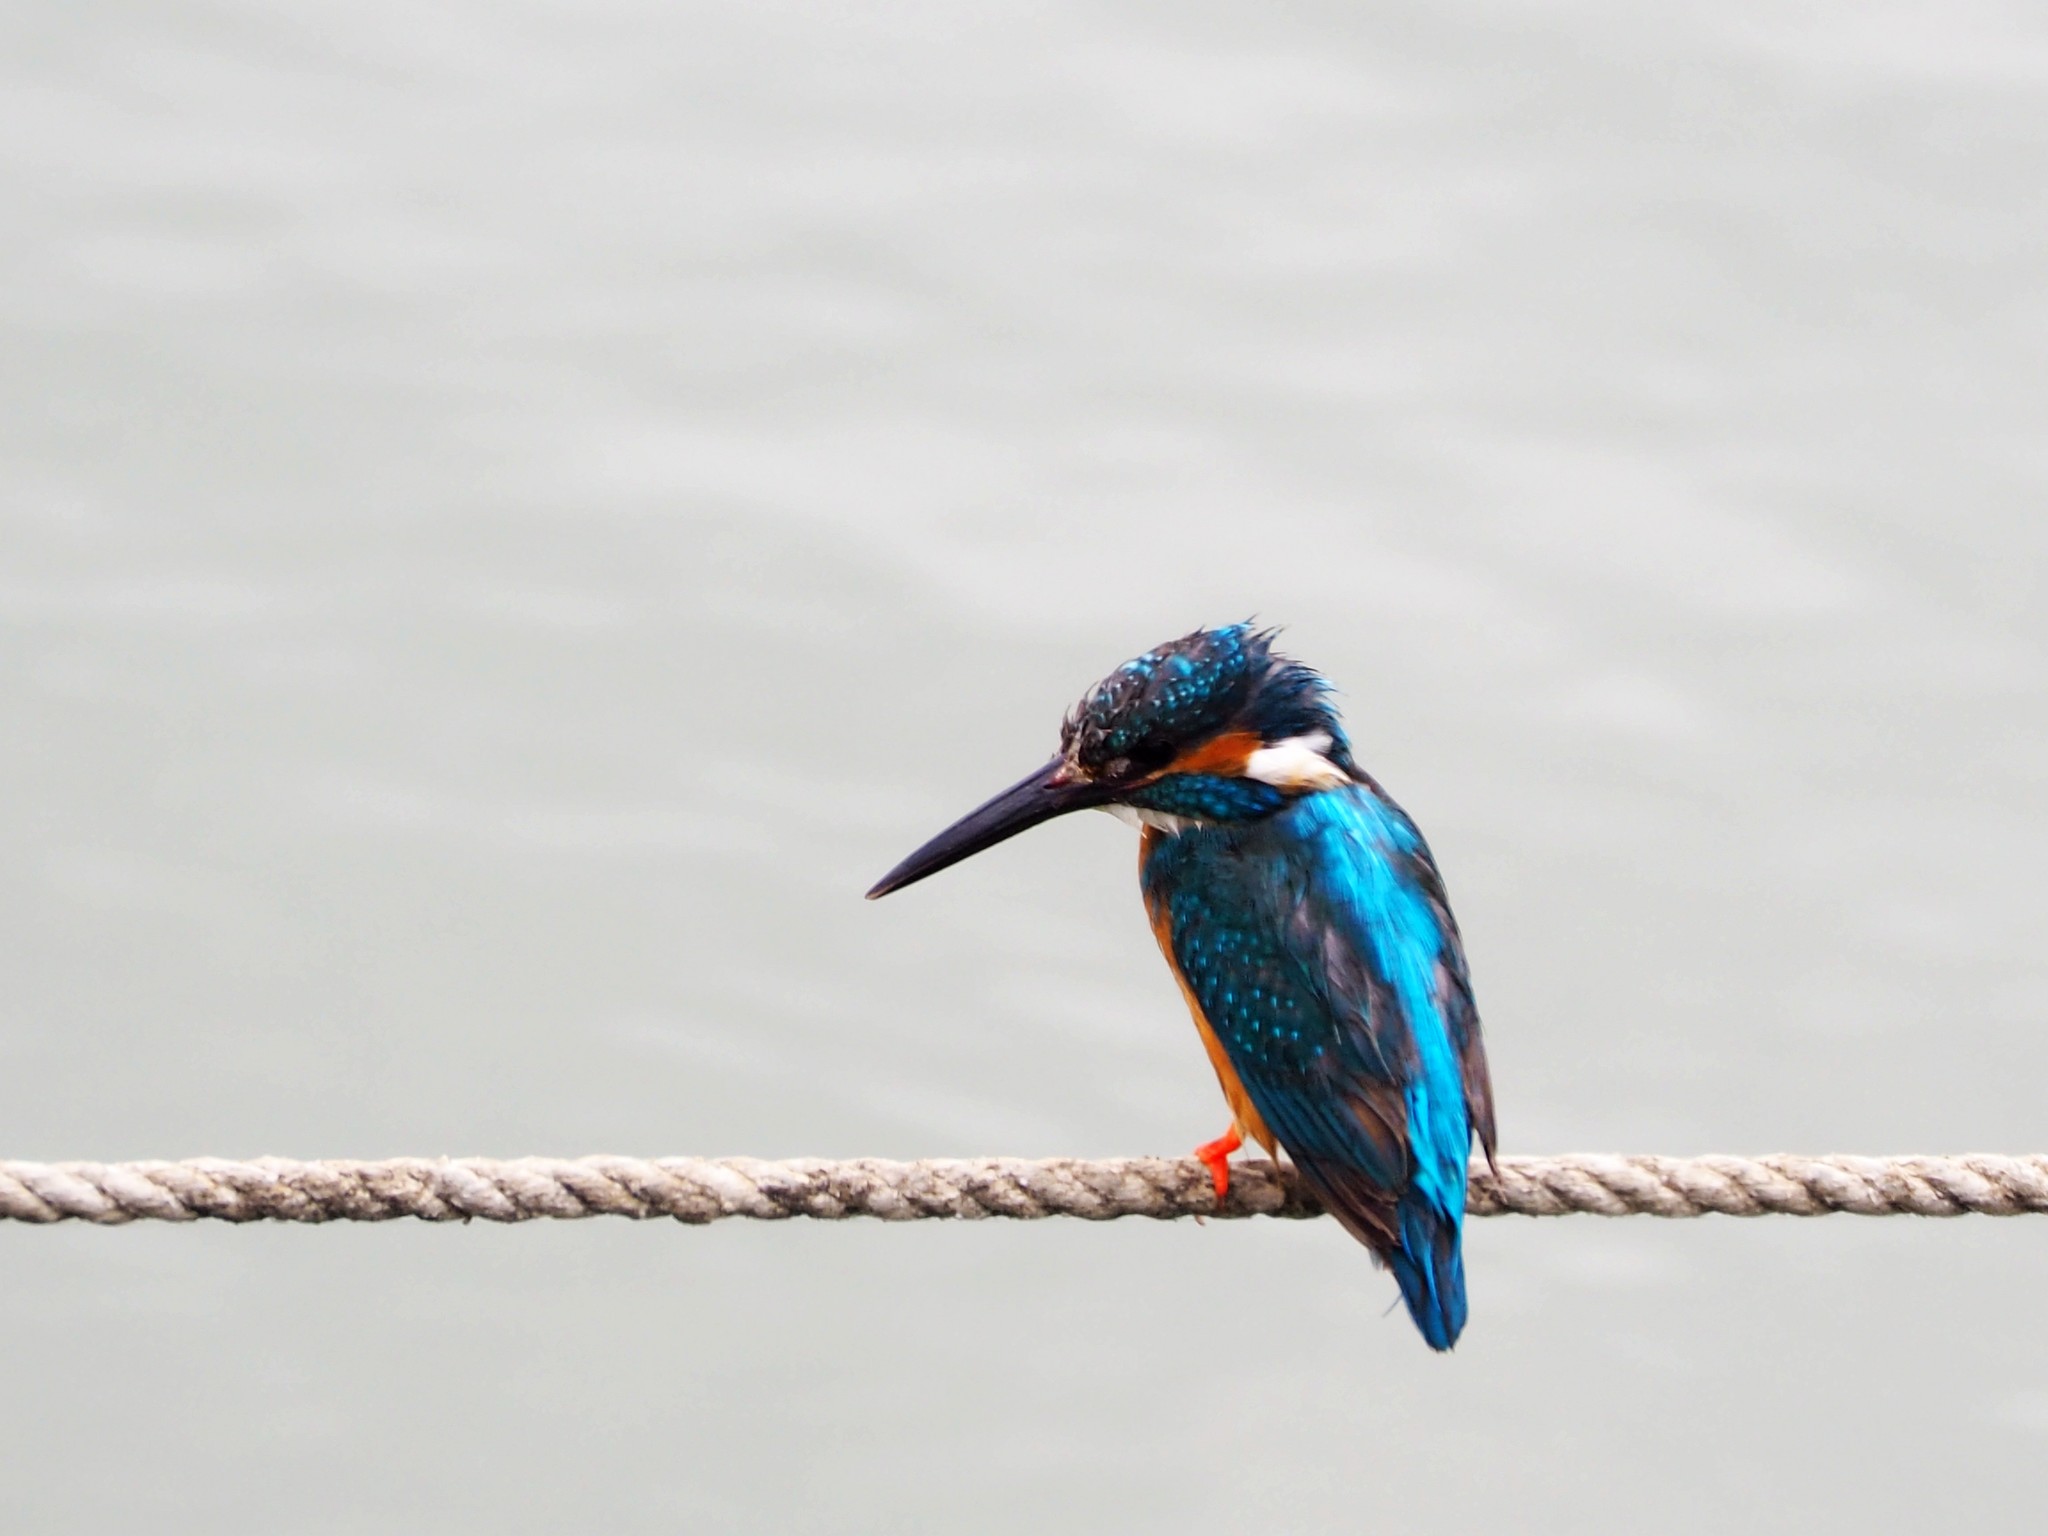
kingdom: Animalia
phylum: Chordata
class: Aves
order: Coraciiformes
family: Alcedinidae
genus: Alcedo
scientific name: Alcedo atthis
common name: Common kingfisher
